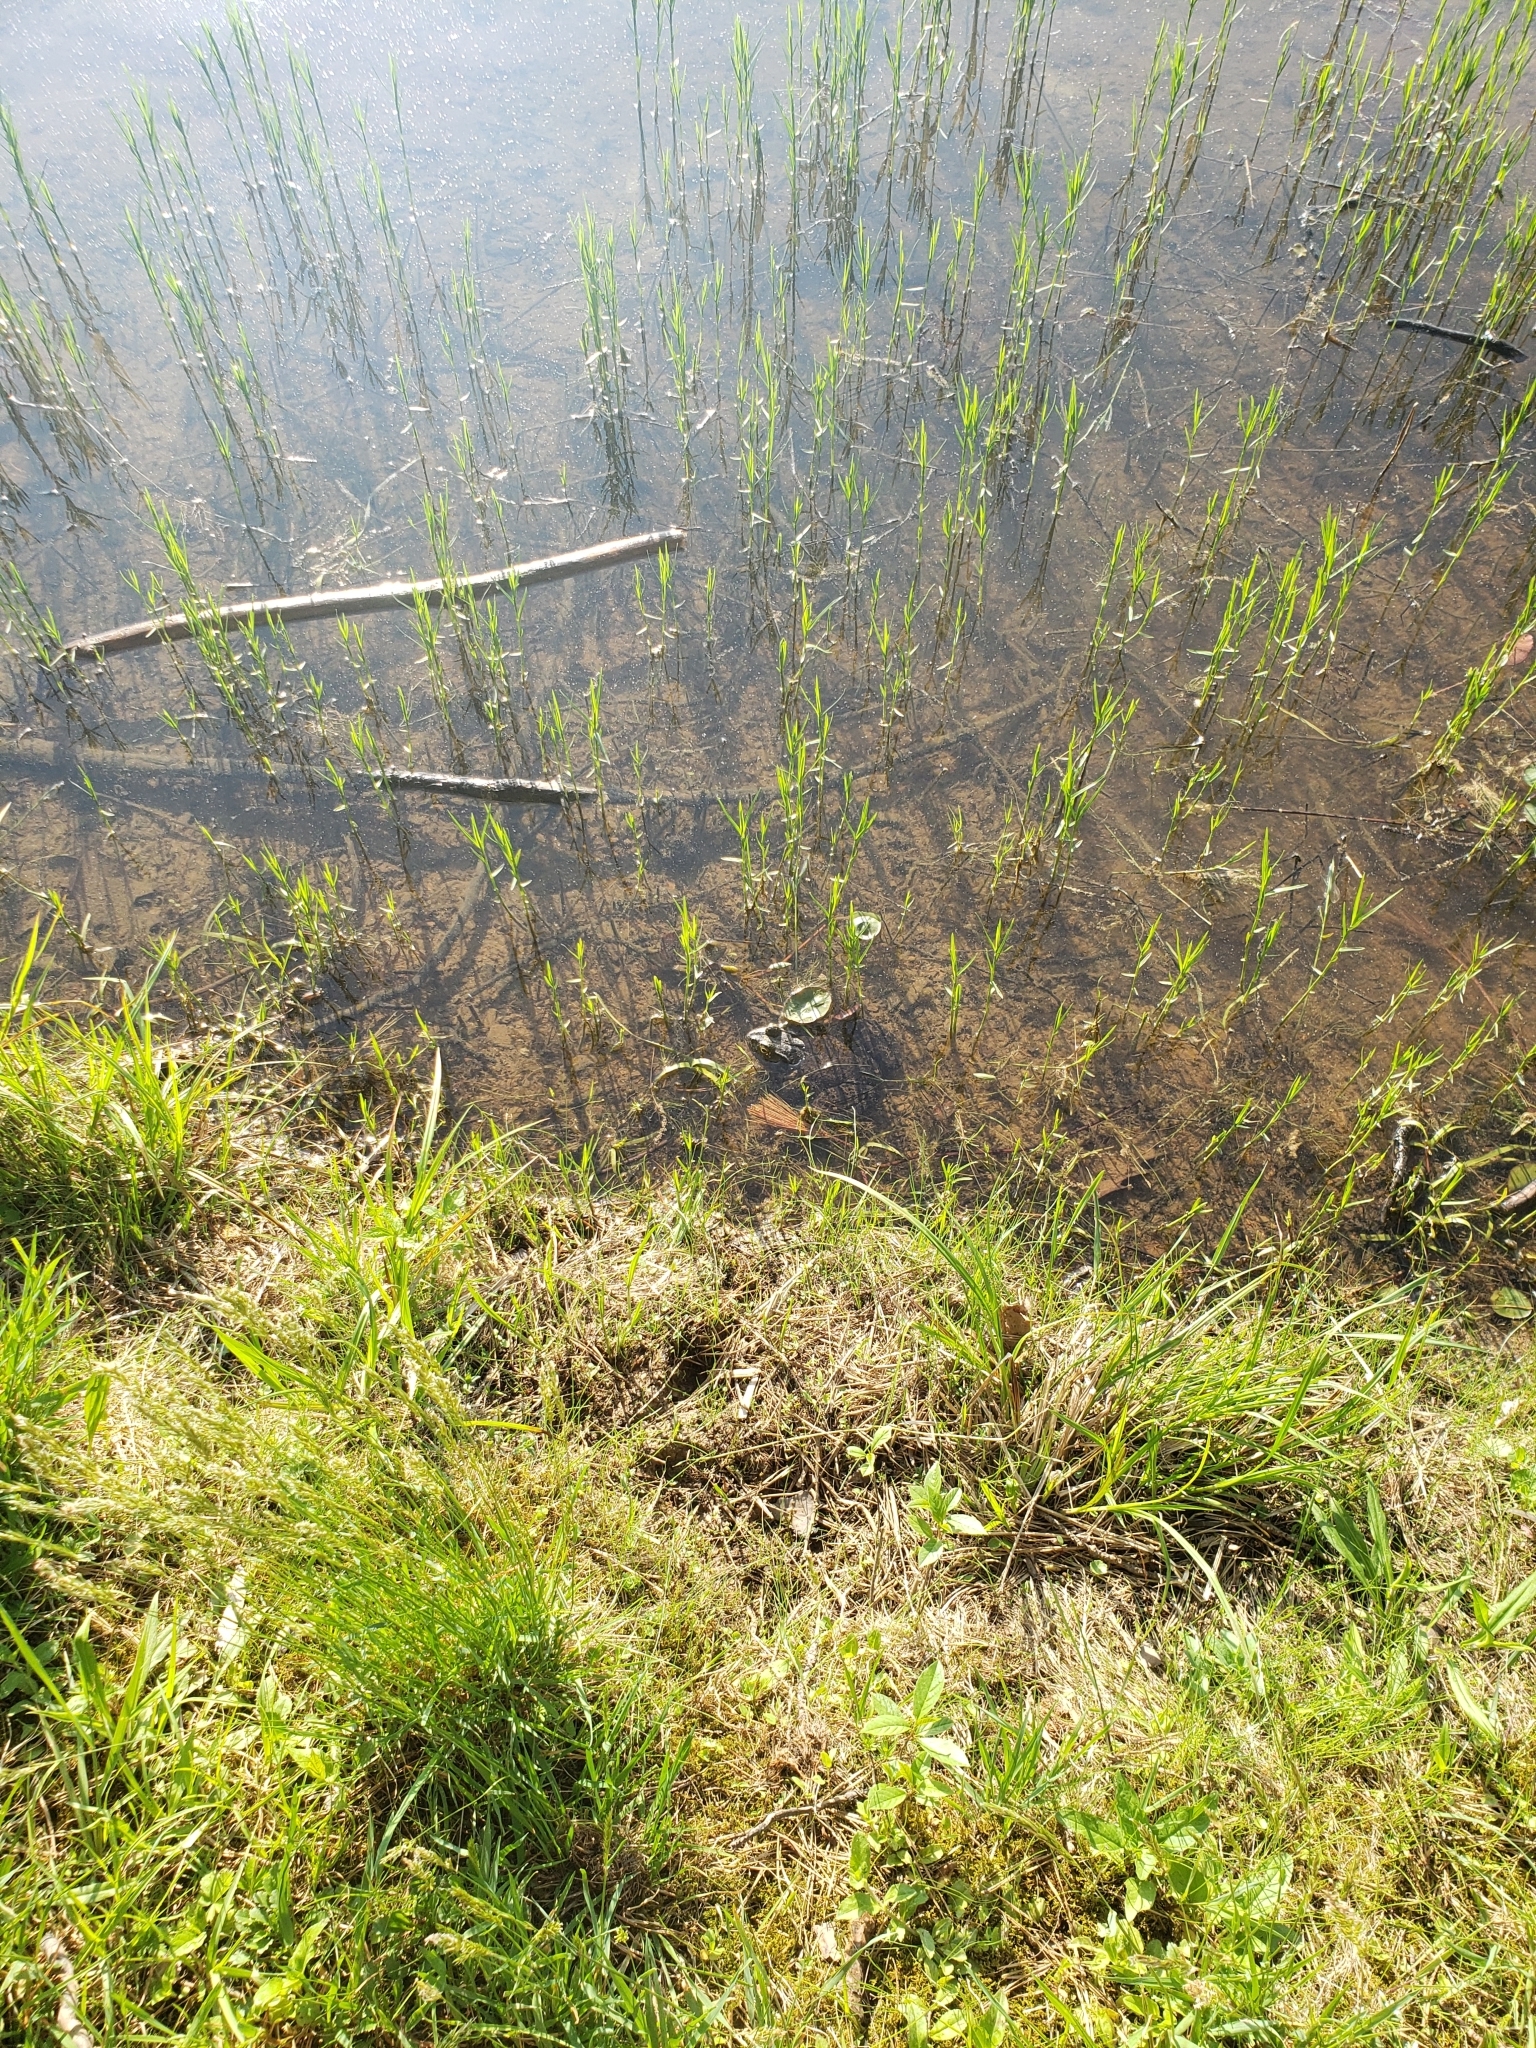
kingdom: Animalia
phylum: Chordata
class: Amphibia
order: Anura
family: Ranidae
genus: Lithobates
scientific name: Lithobates catesbeianus
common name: American bullfrog
